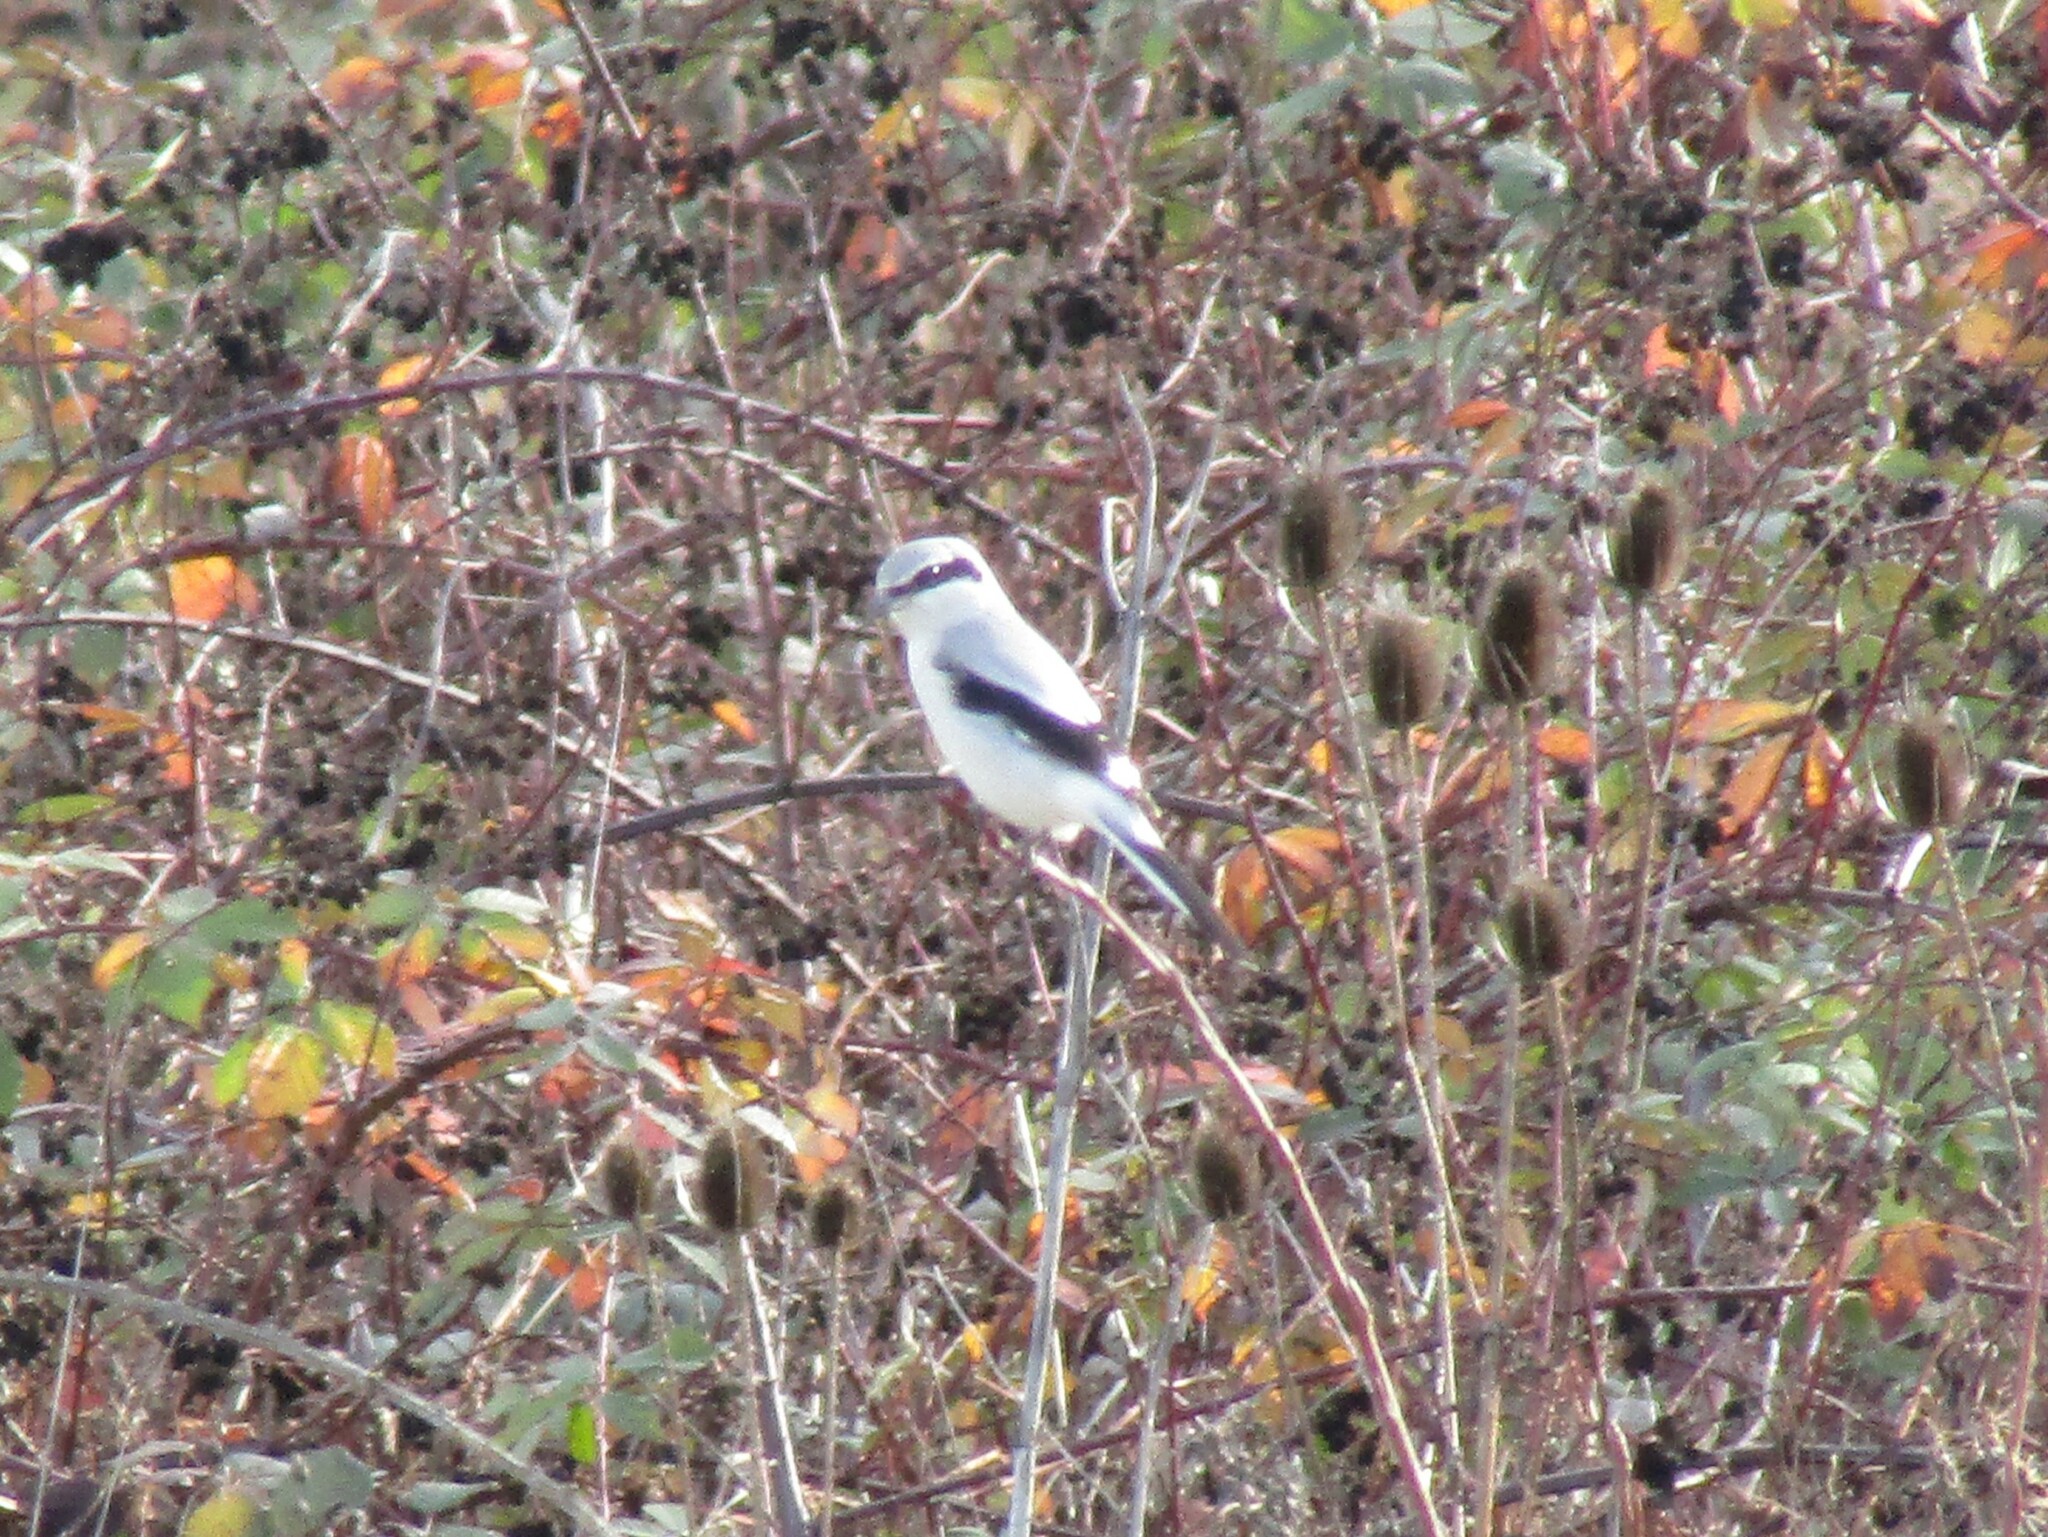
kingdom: Animalia
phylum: Chordata
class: Aves
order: Passeriformes
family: Laniidae
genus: Lanius
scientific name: Lanius borealis
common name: Northern shrike
